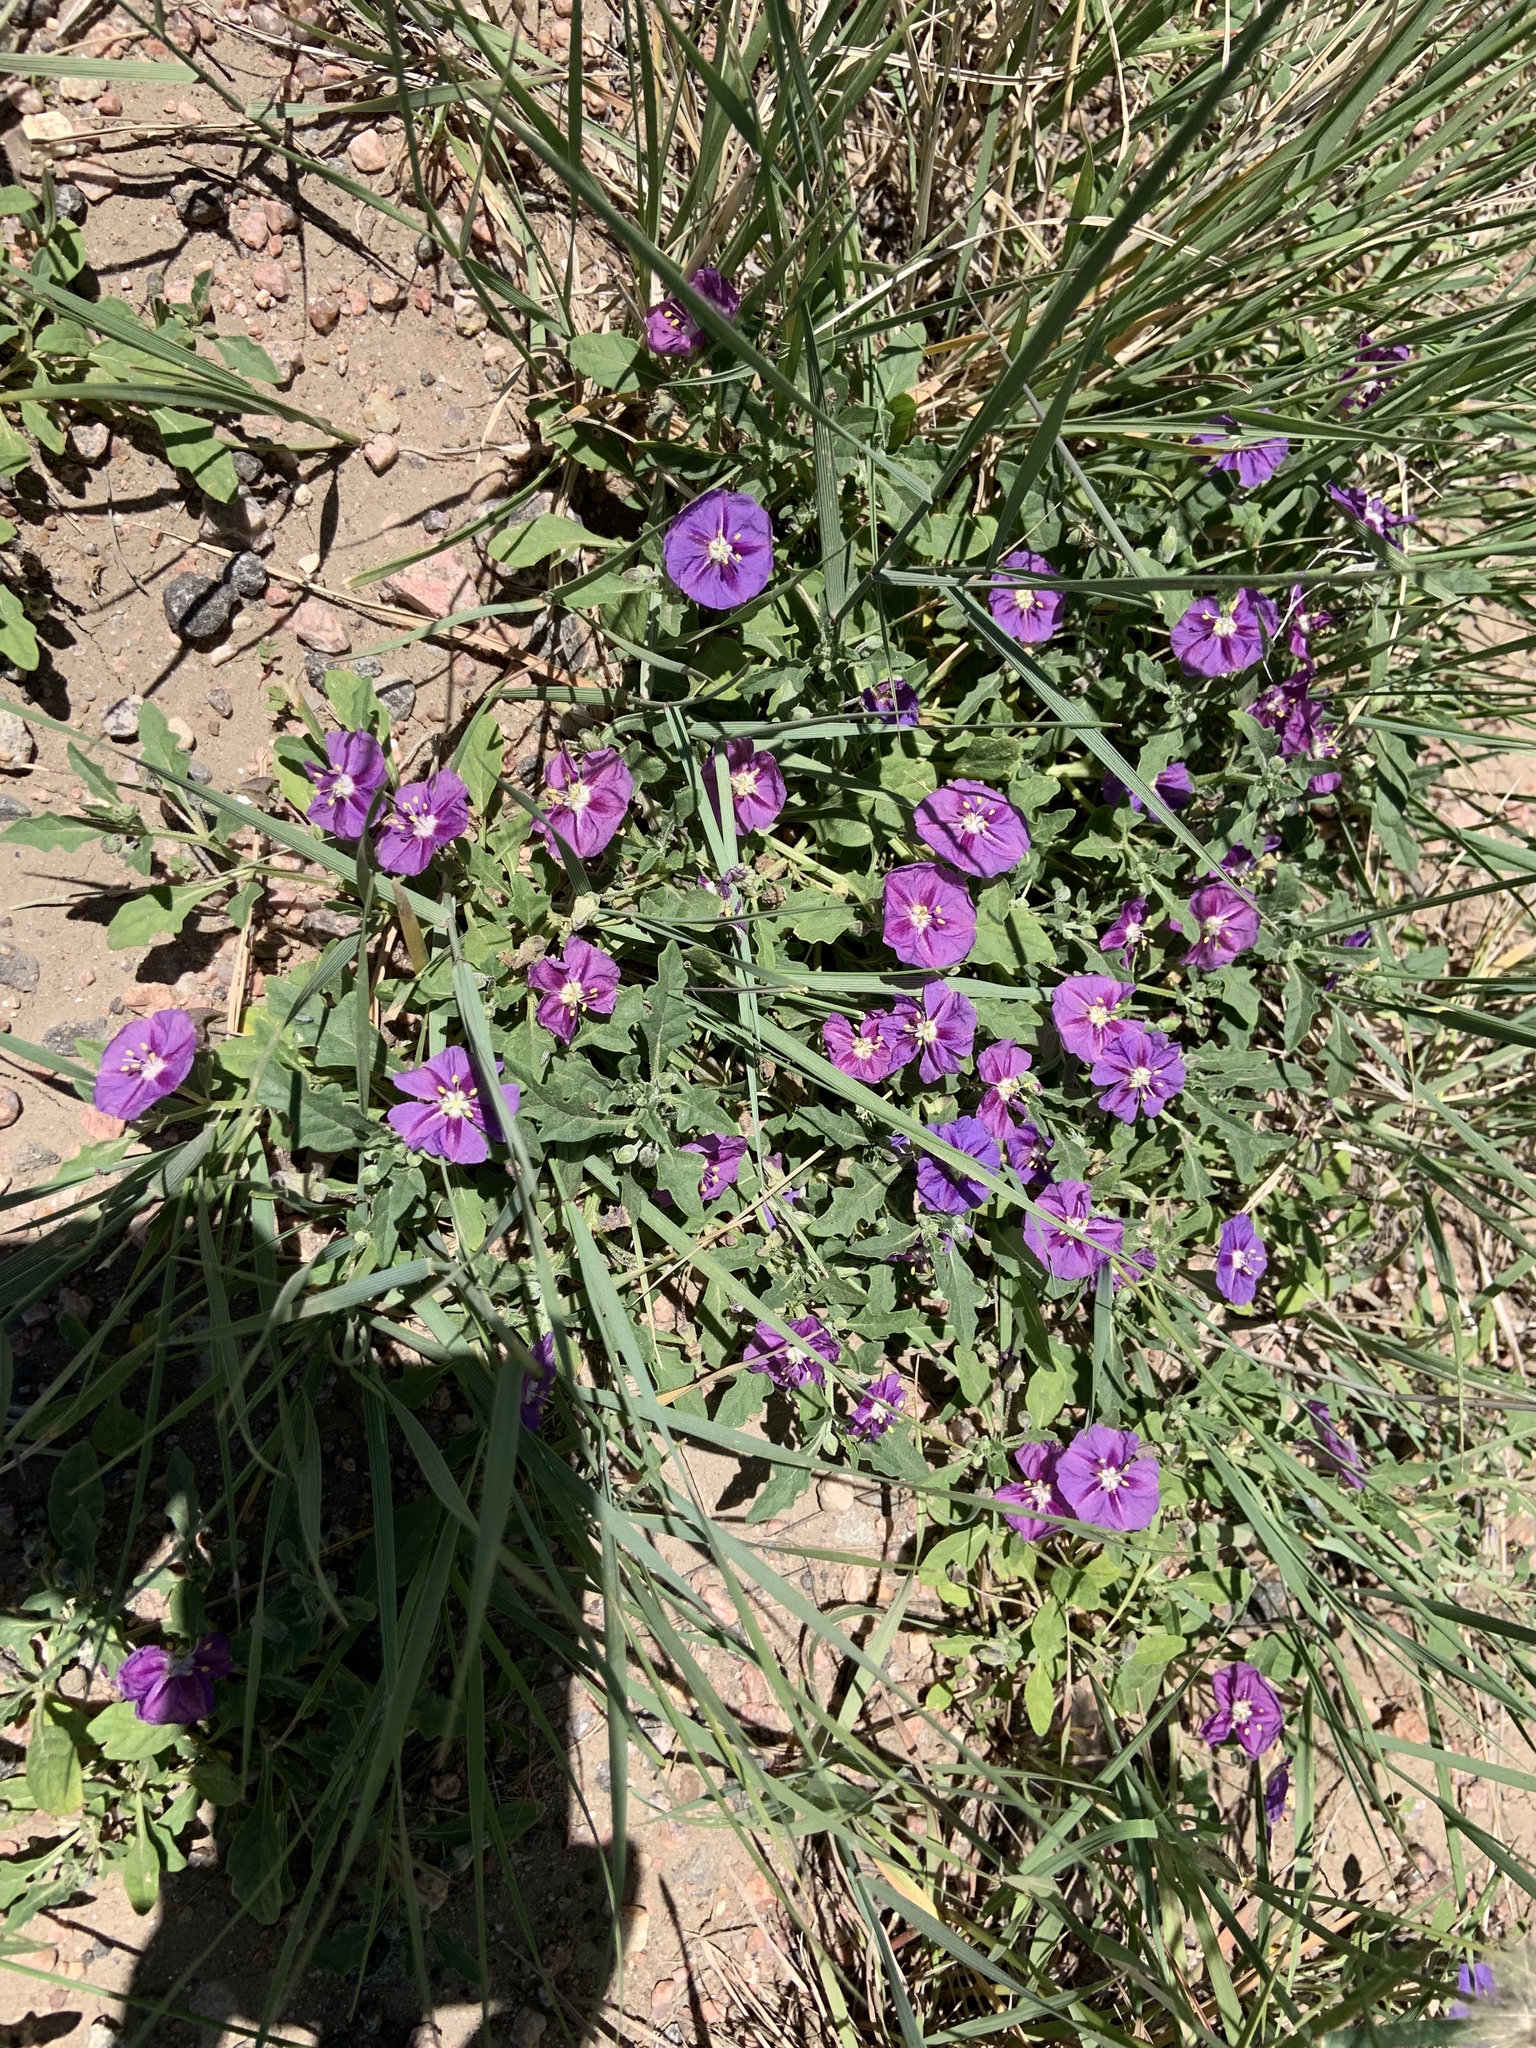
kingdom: Plantae
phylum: Tracheophyta
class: Magnoliopsida
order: Solanales
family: Solanaceae
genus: Quincula
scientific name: Quincula lobata
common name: Purple-ground-cherry
